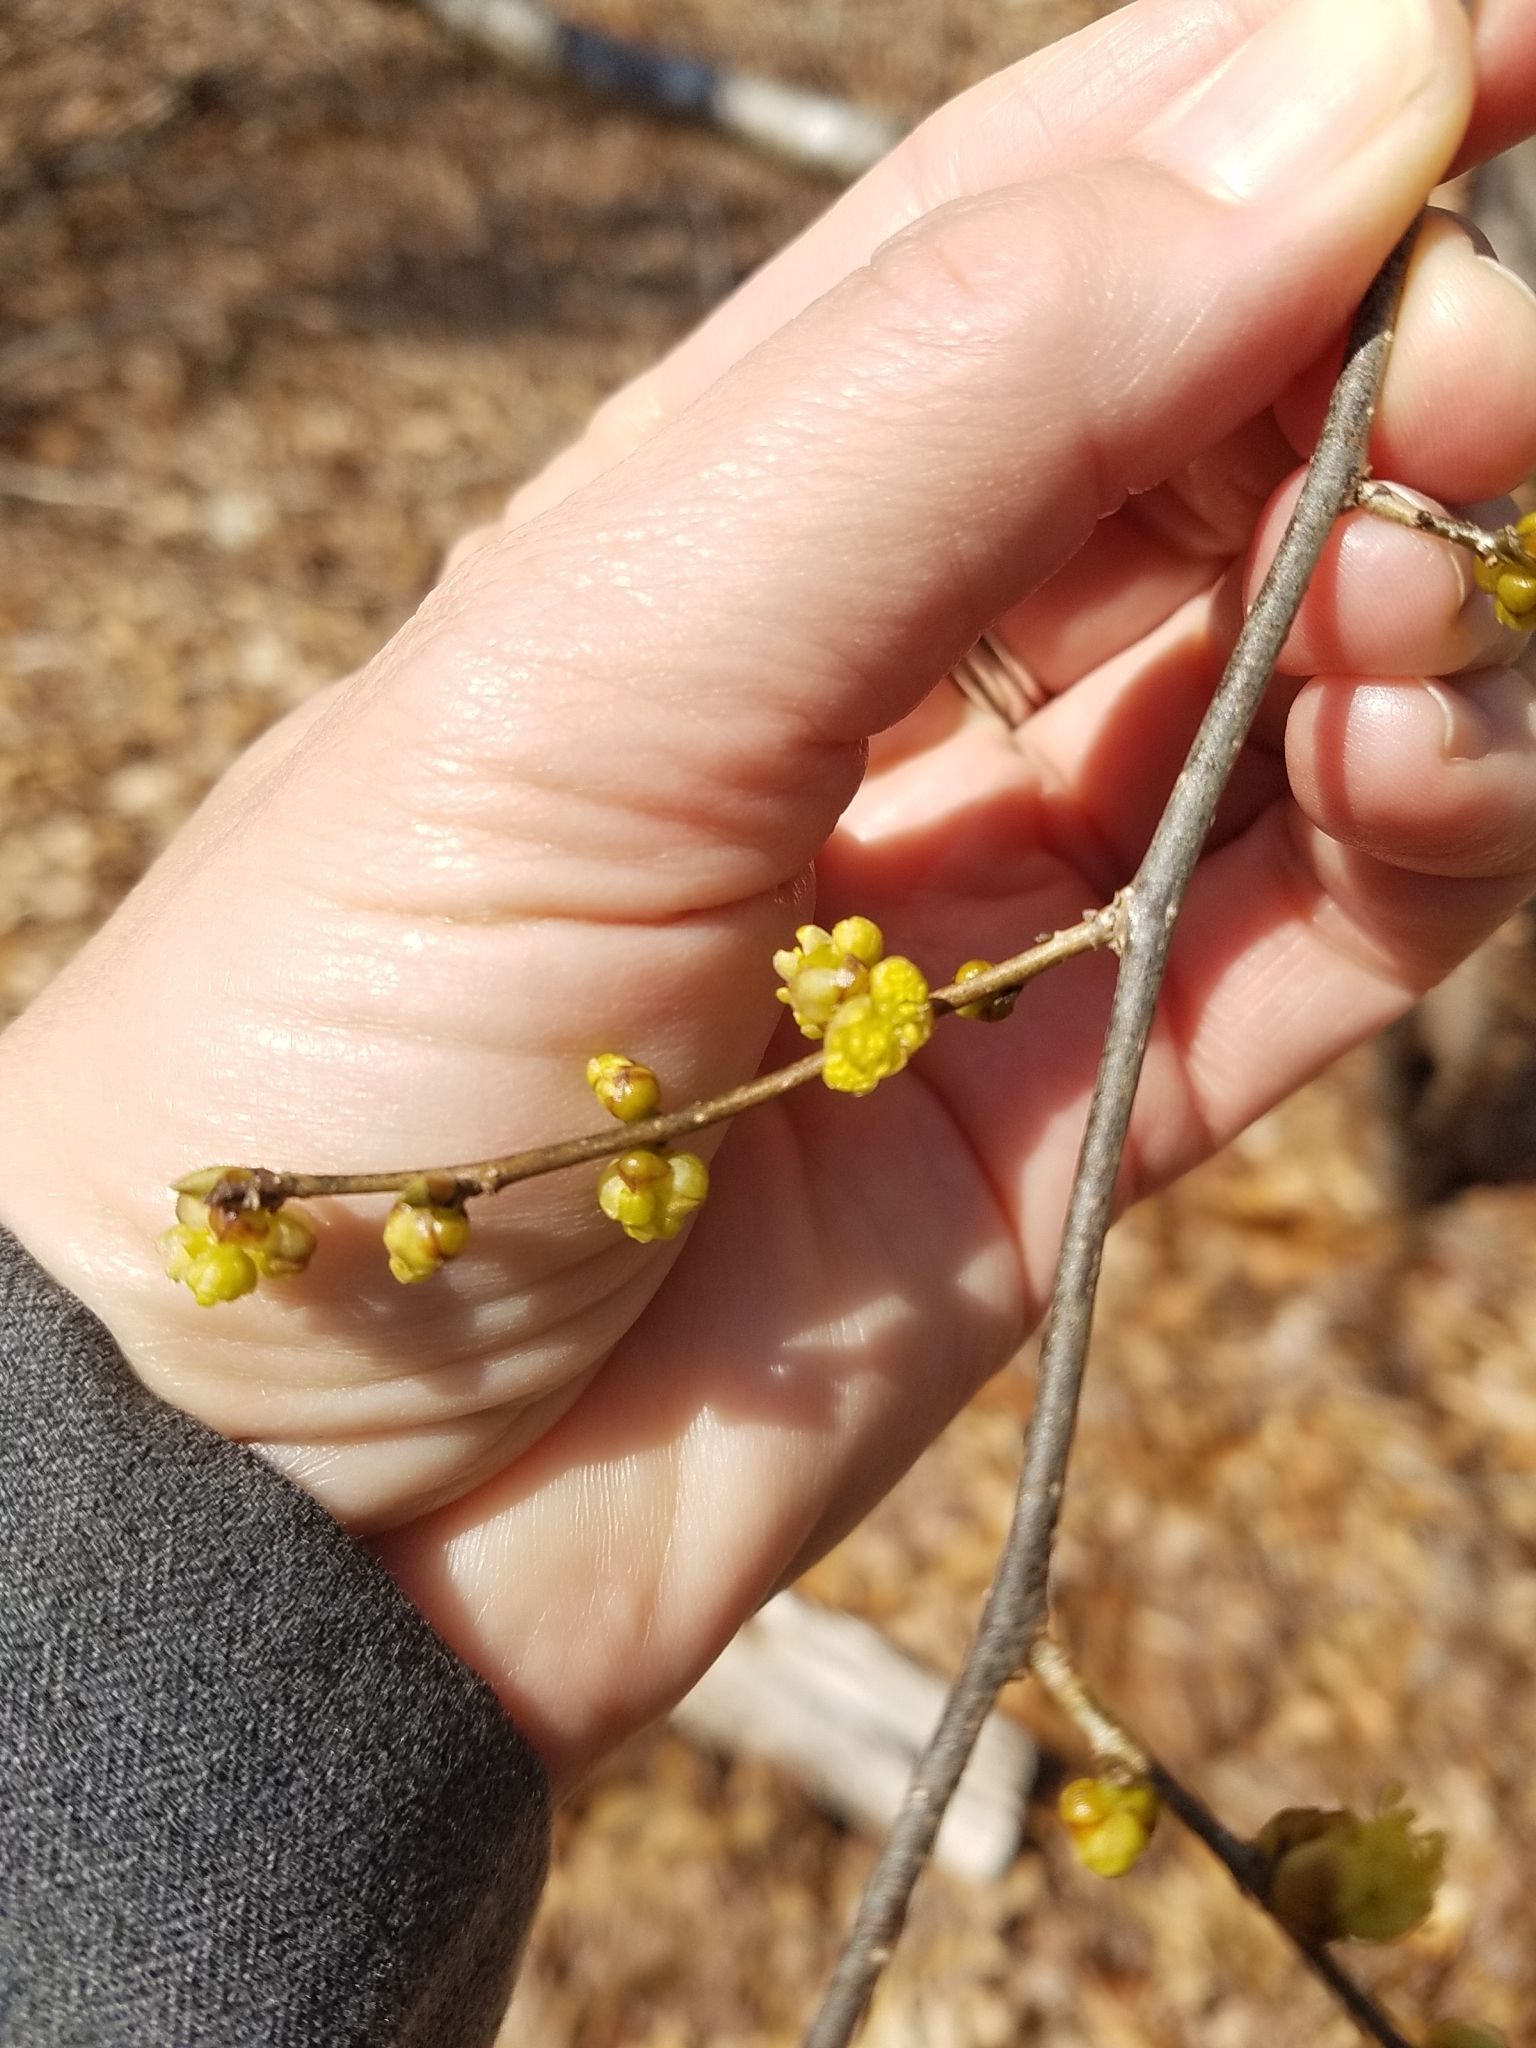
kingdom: Plantae
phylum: Tracheophyta
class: Magnoliopsida
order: Laurales
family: Lauraceae
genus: Lindera
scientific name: Lindera benzoin
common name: Spicebush
